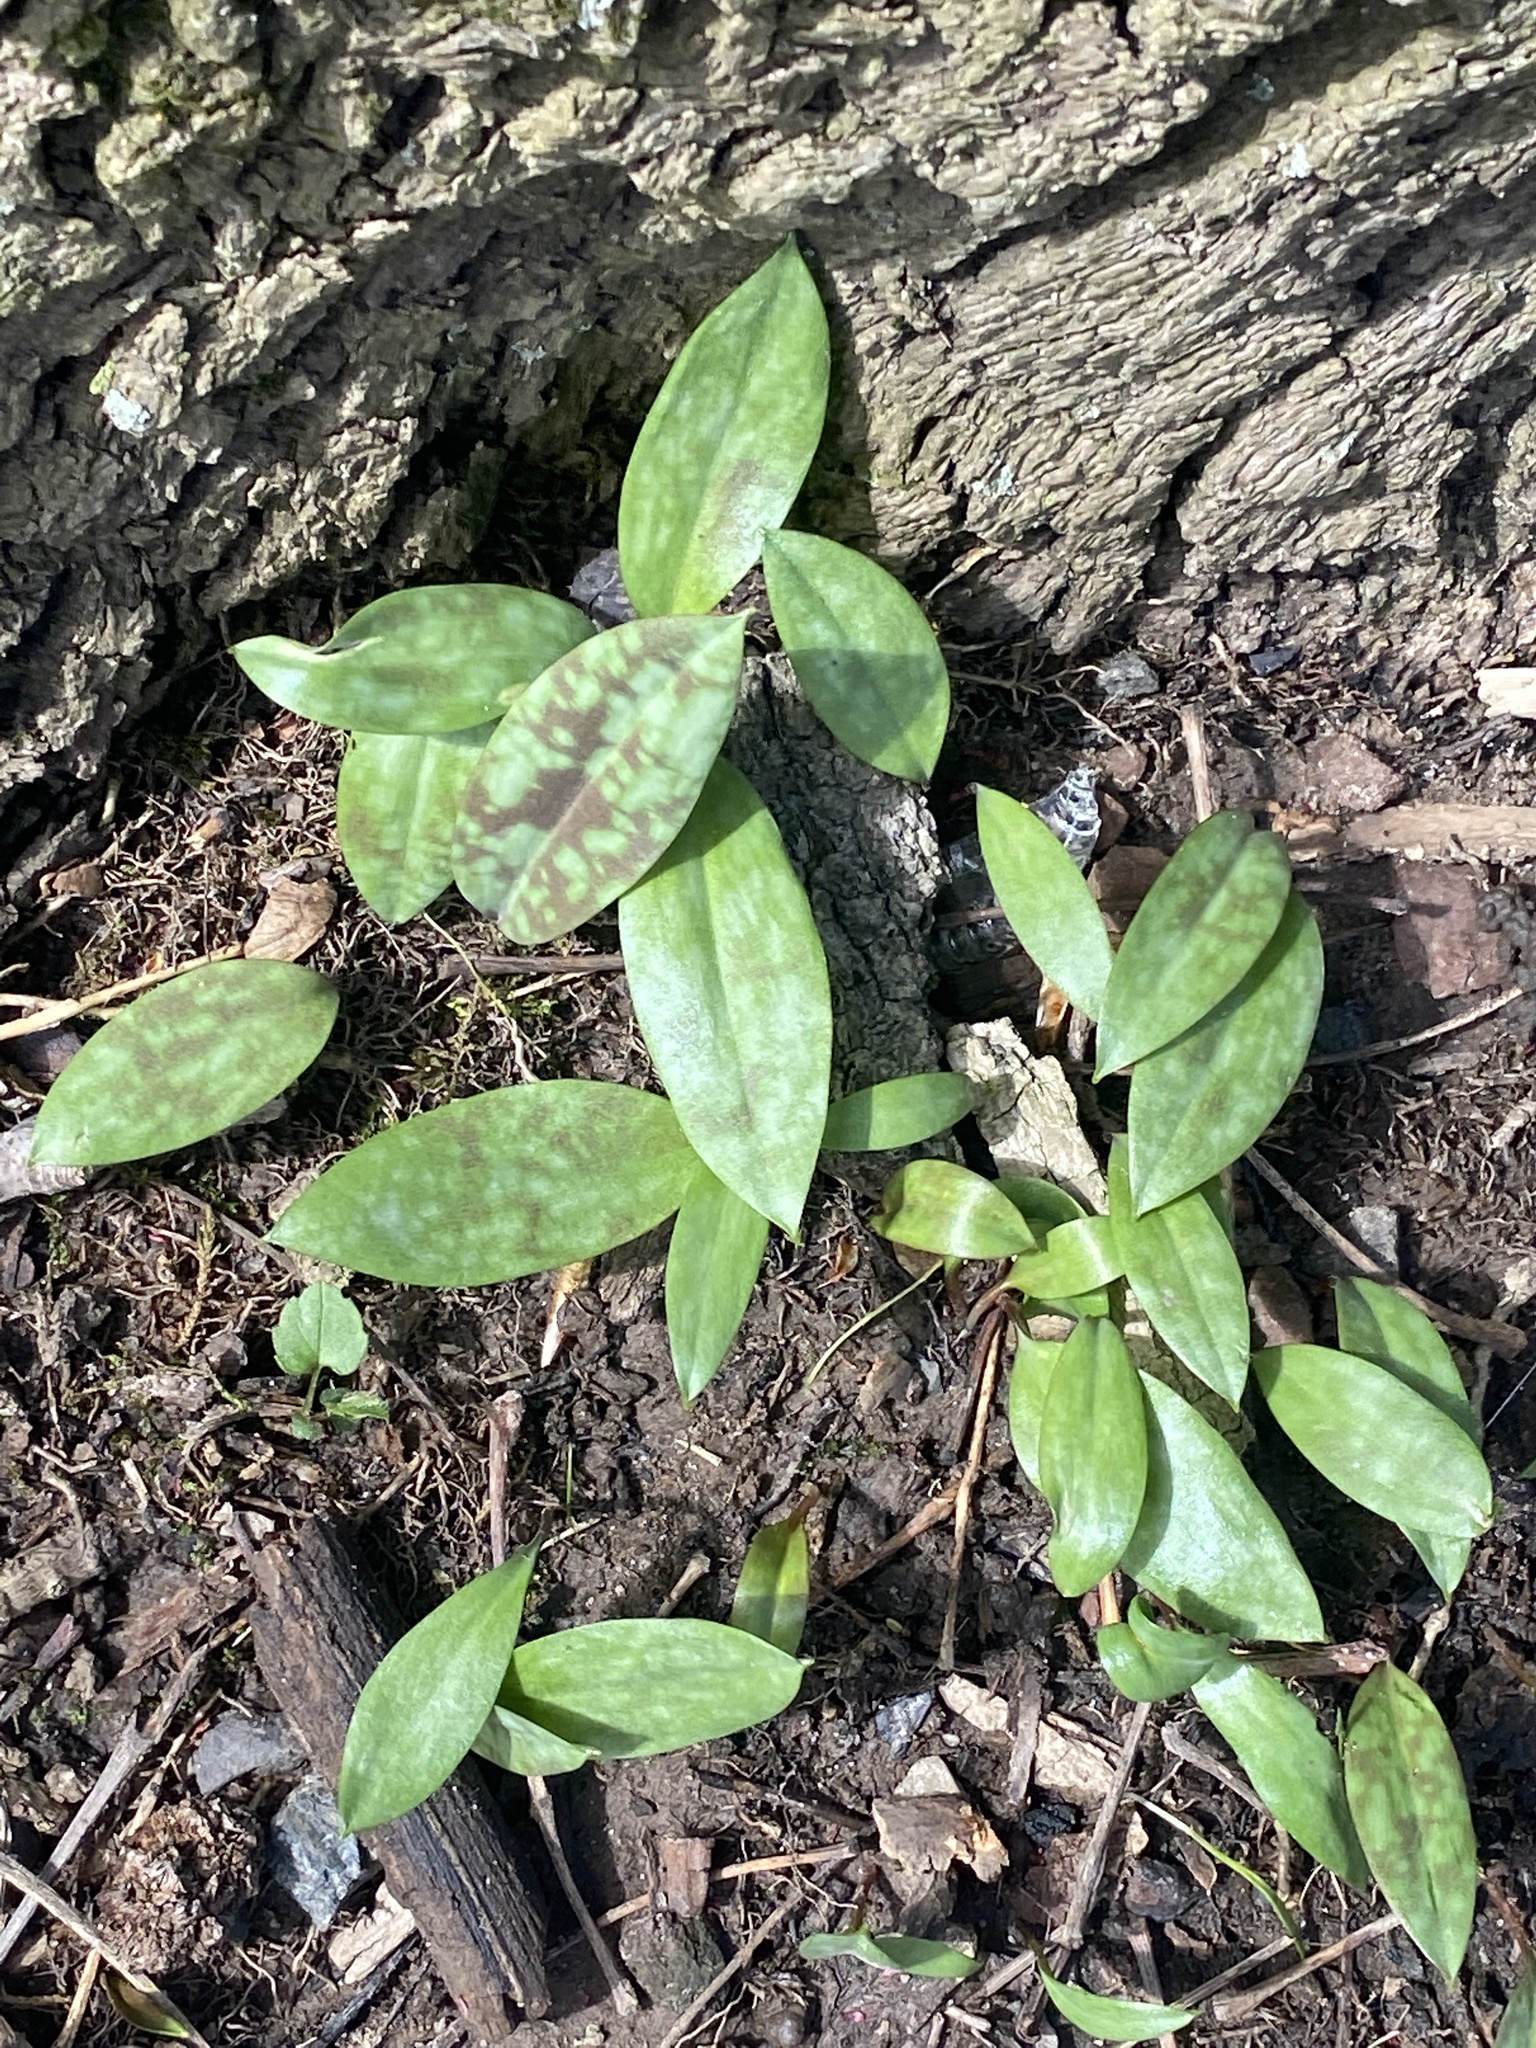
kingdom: Plantae
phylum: Tracheophyta
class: Liliopsida
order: Liliales
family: Liliaceae
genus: Erythronium
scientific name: Erythronium americanum
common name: Yellow adder's-tongue
